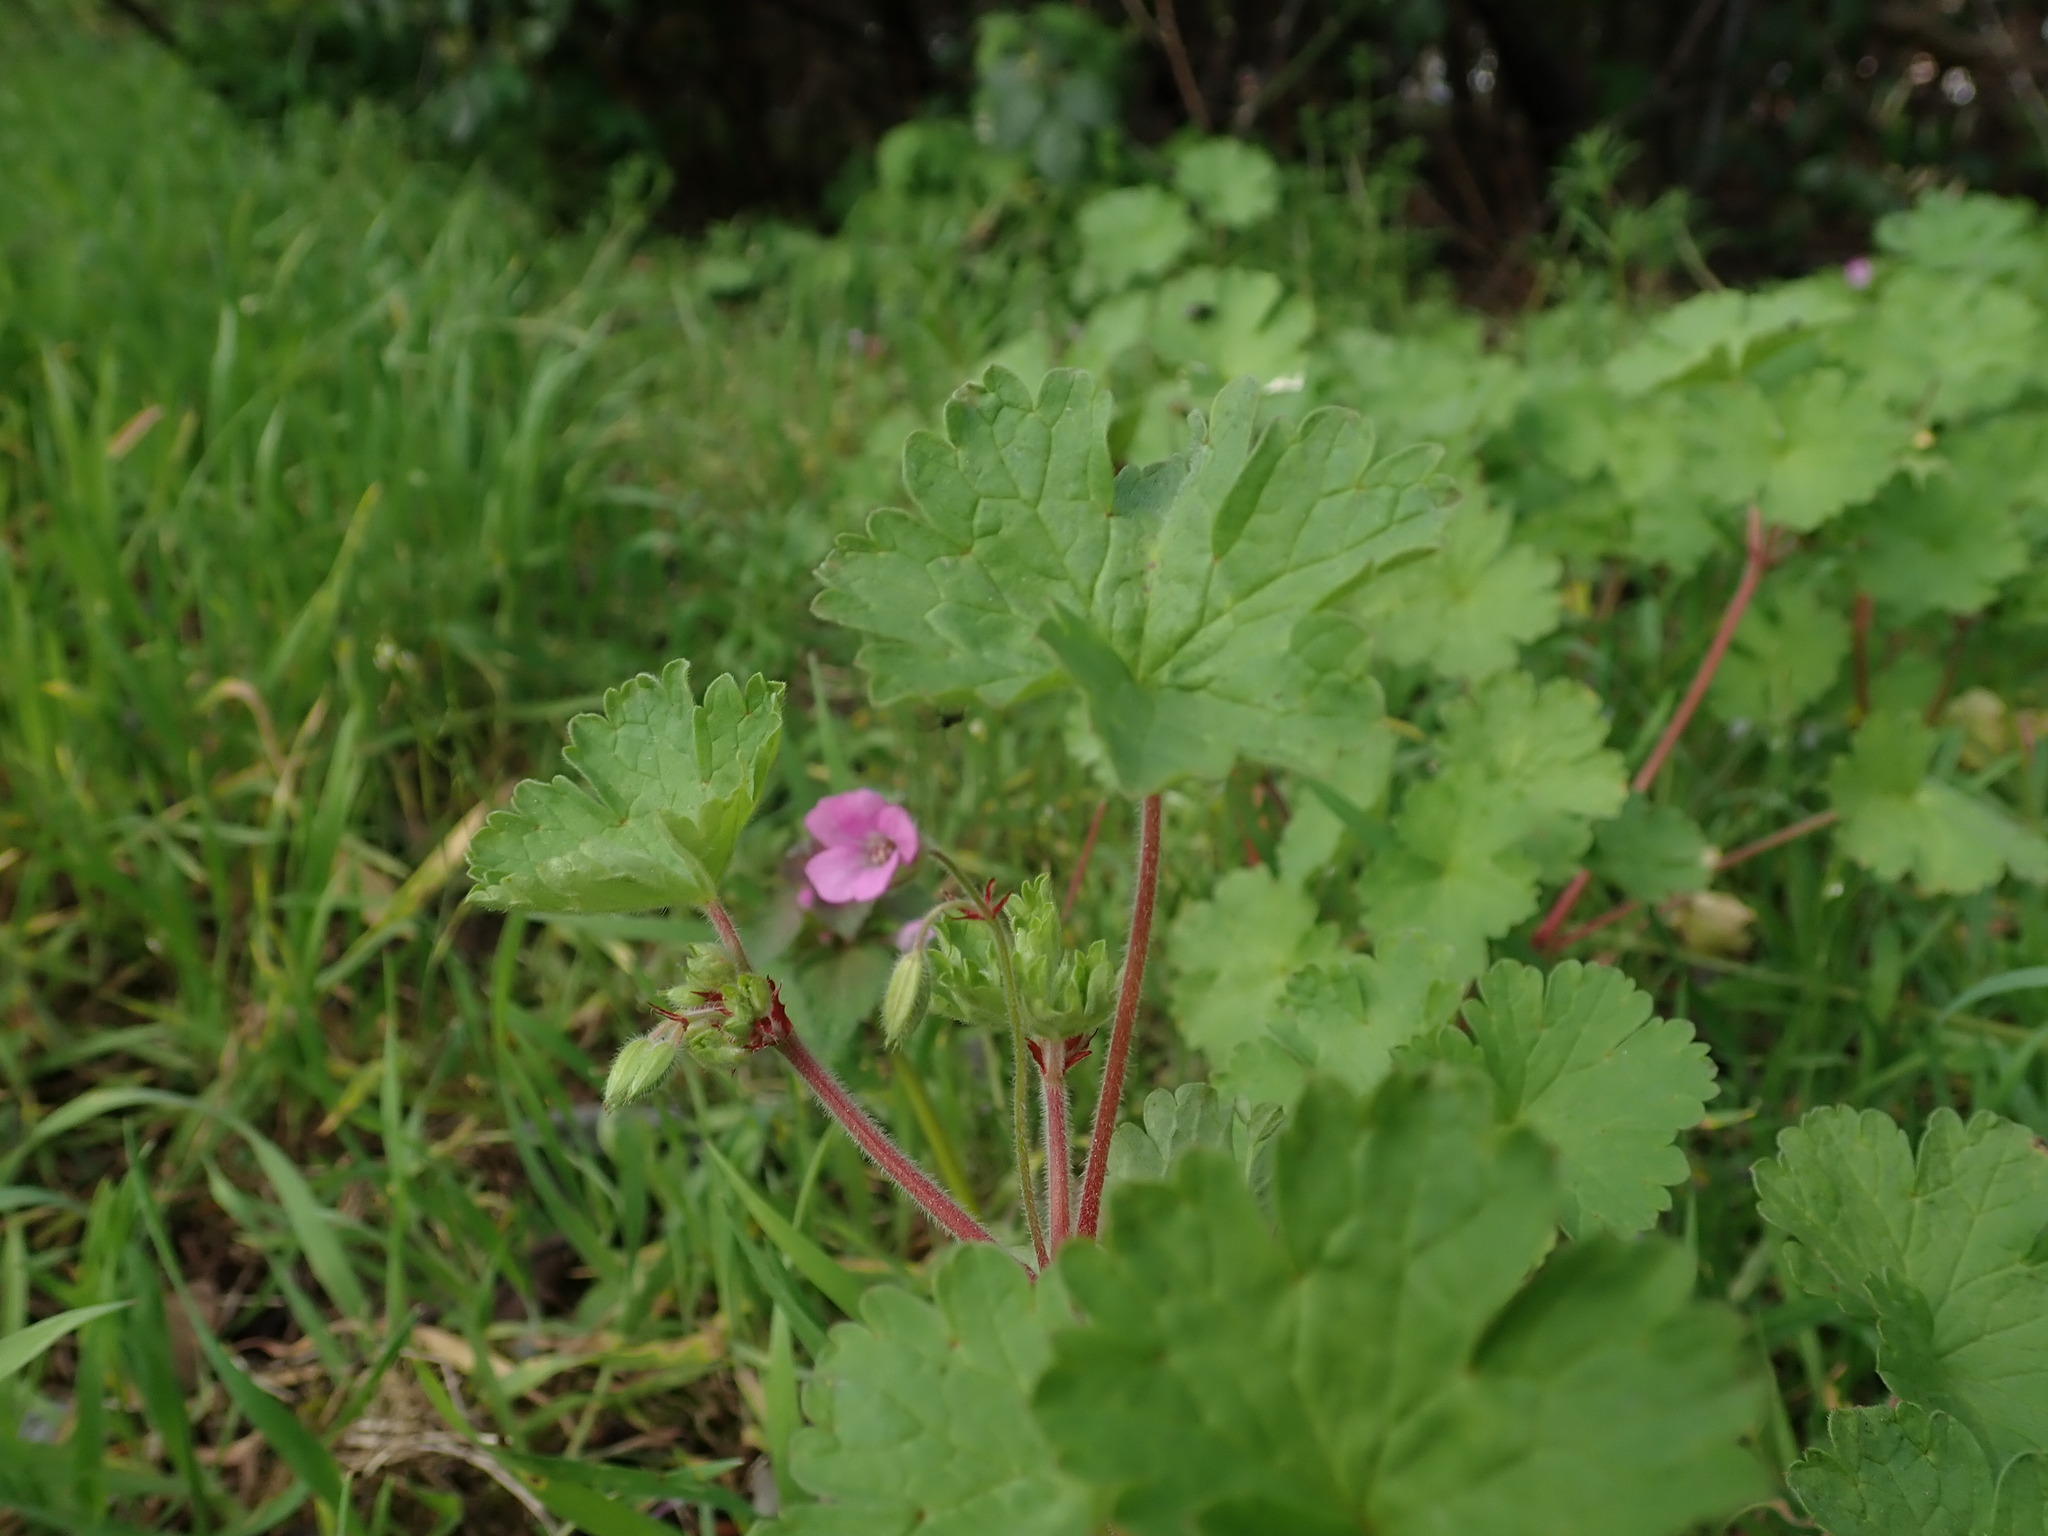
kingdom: Plantae
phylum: Tracheophyta
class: Magnoliopsida
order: Geraniales
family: Geraniaceae
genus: Geranium
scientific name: Geranium rotundifolium
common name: Round-leaved crane's-bill
